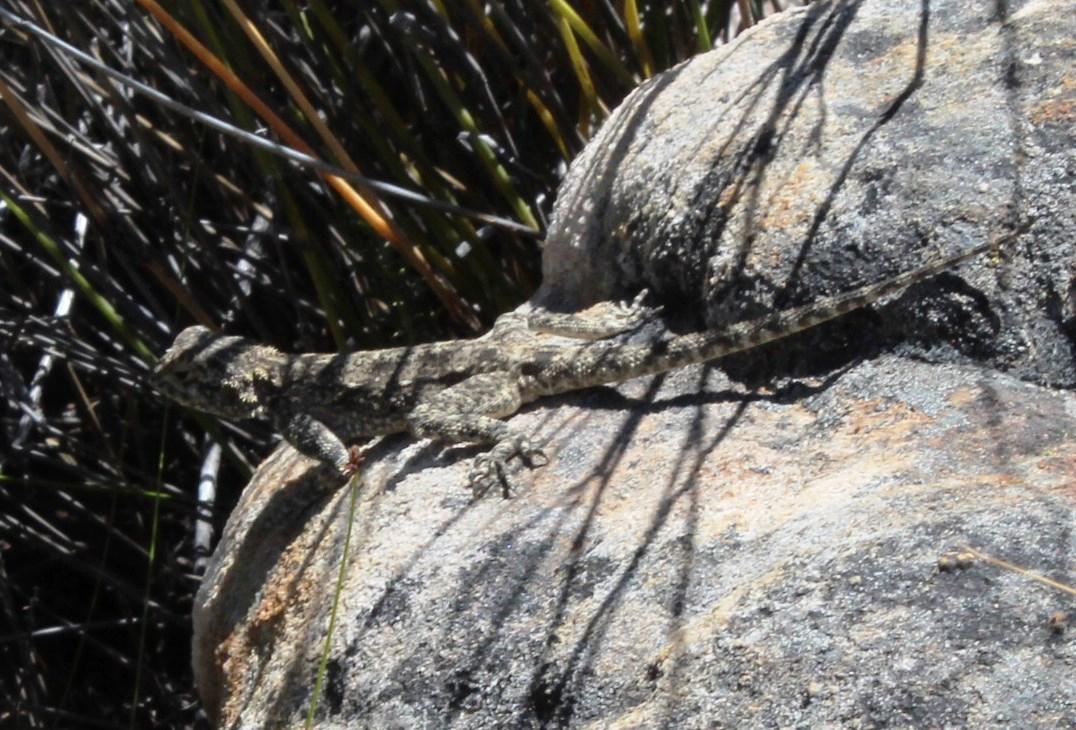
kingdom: Animalia
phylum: Chordata
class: Squamata
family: Agamidae
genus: Agama
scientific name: Agama atra
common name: Southern african rock agama
